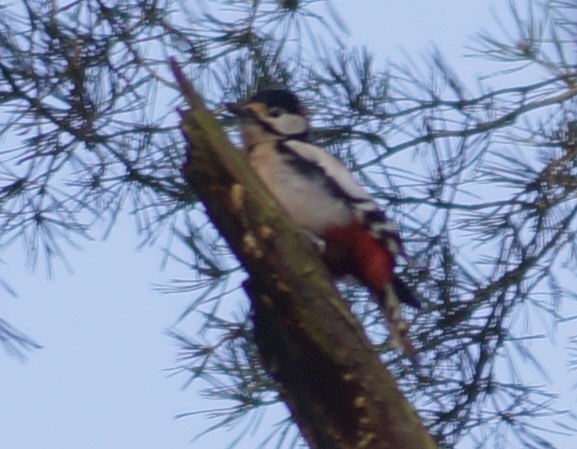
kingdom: Animalia
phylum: Chordata
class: Aves
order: Piciformes
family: Picidae
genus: Dendrocopos
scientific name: Dendrocopos major
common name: Great spotted woodpecker
